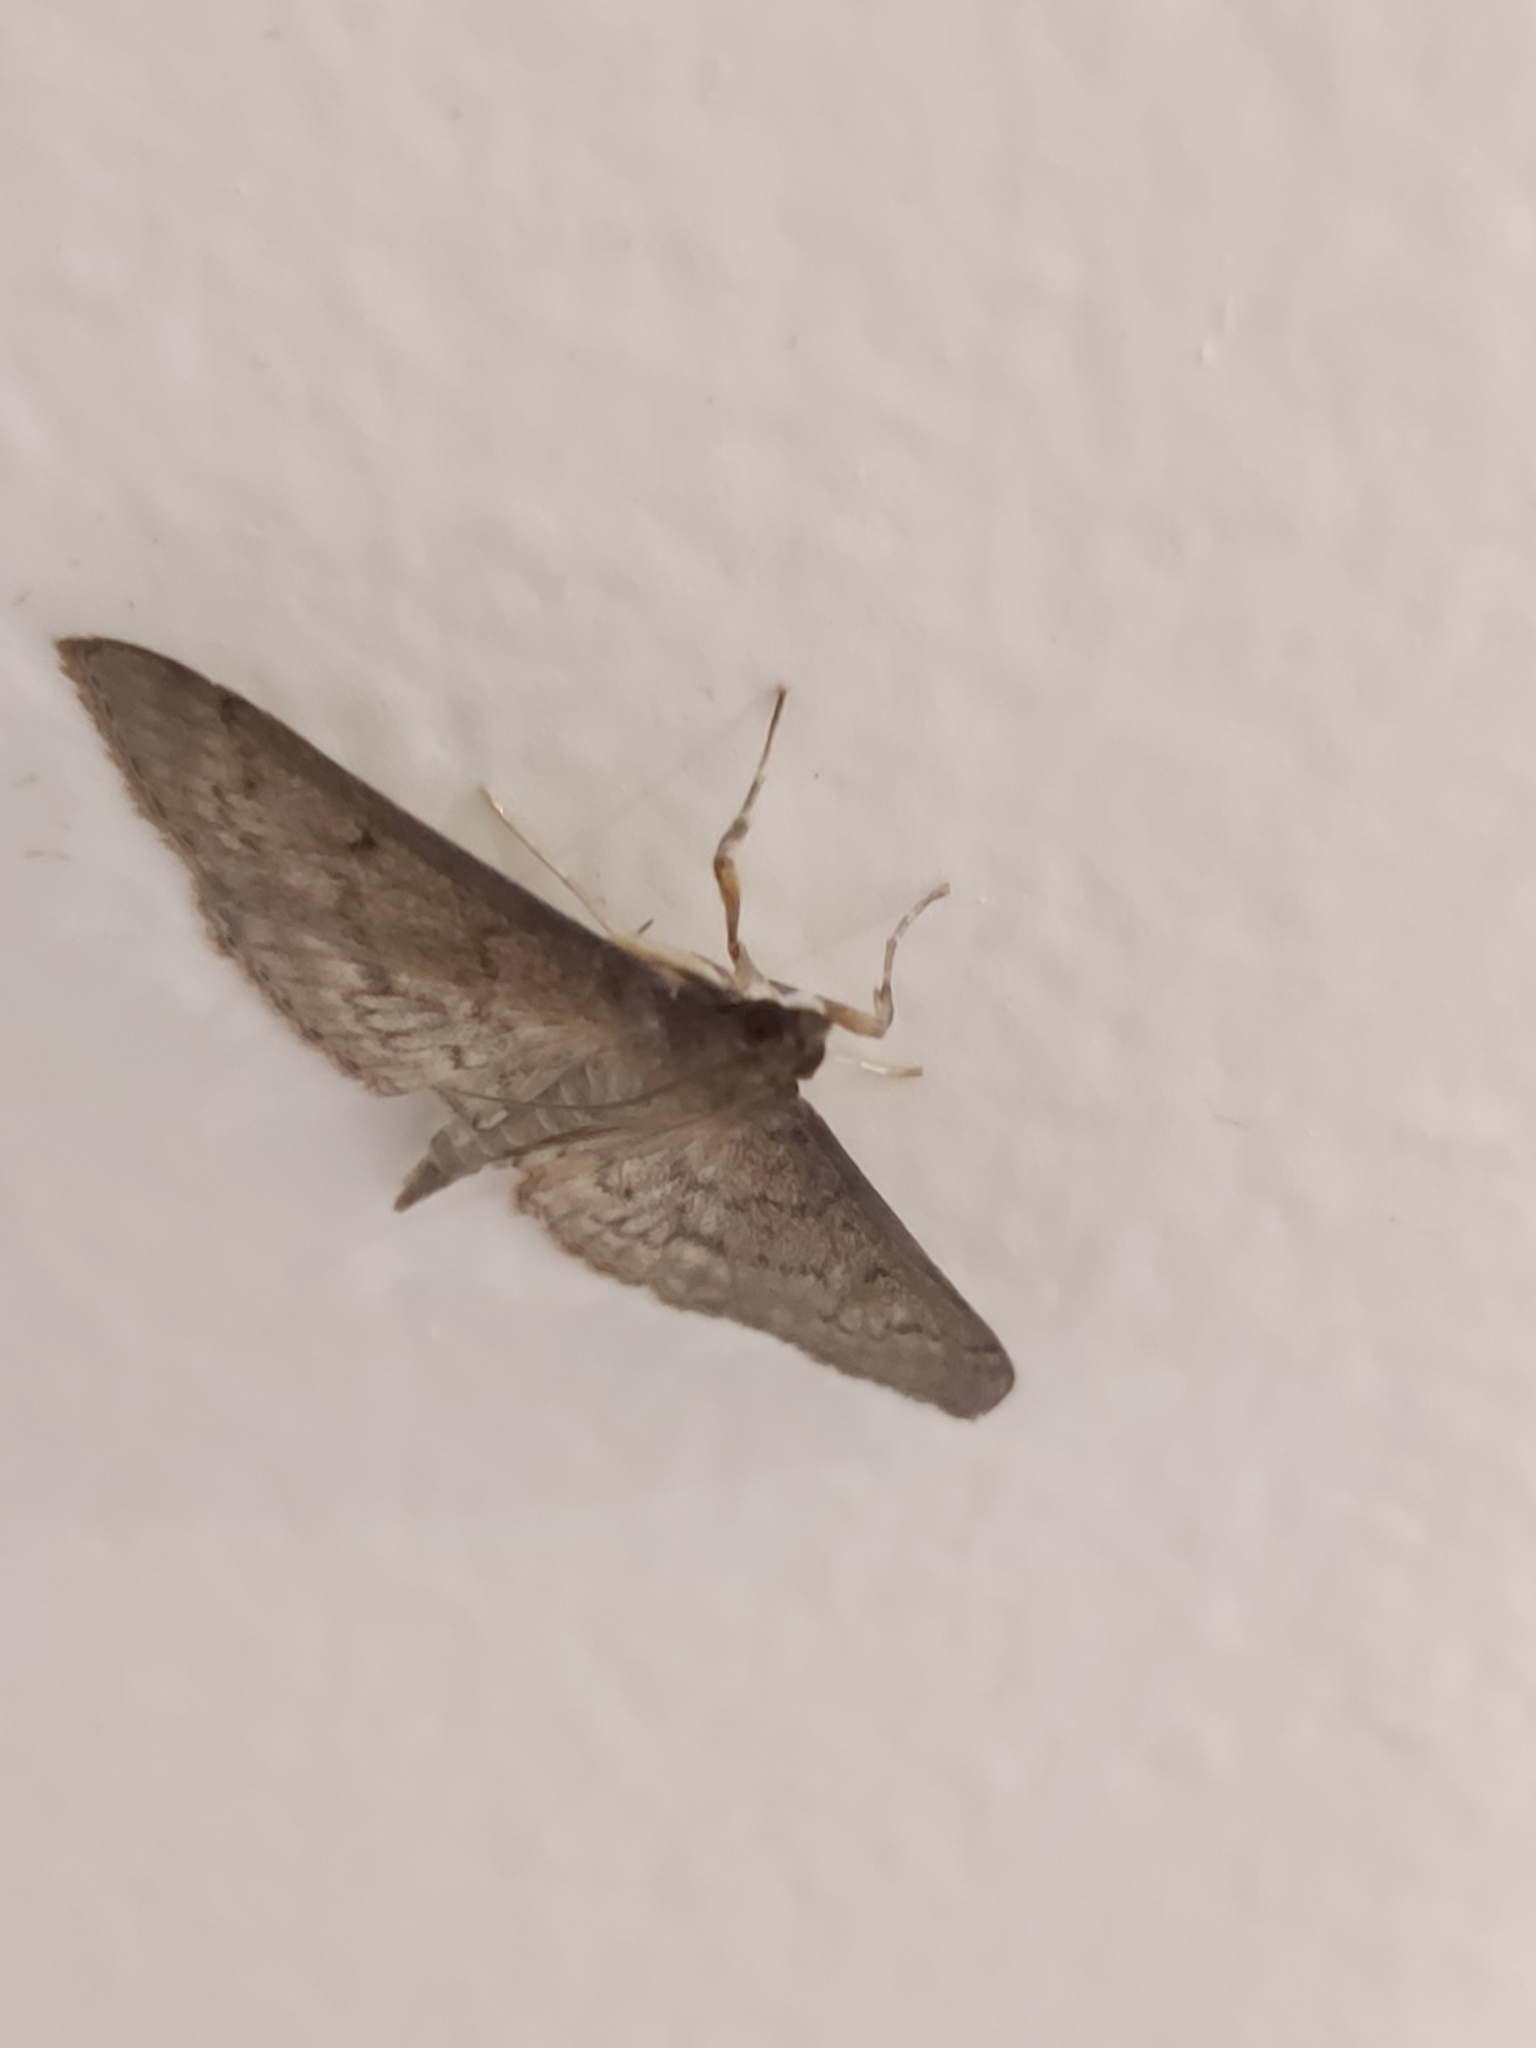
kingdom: Animalia
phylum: Arthropoda
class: Insecta
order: Lepidoptera
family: Crambidae
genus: Herpetogramma
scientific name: Herpetogramma licarsisalis
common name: Grass webworm
